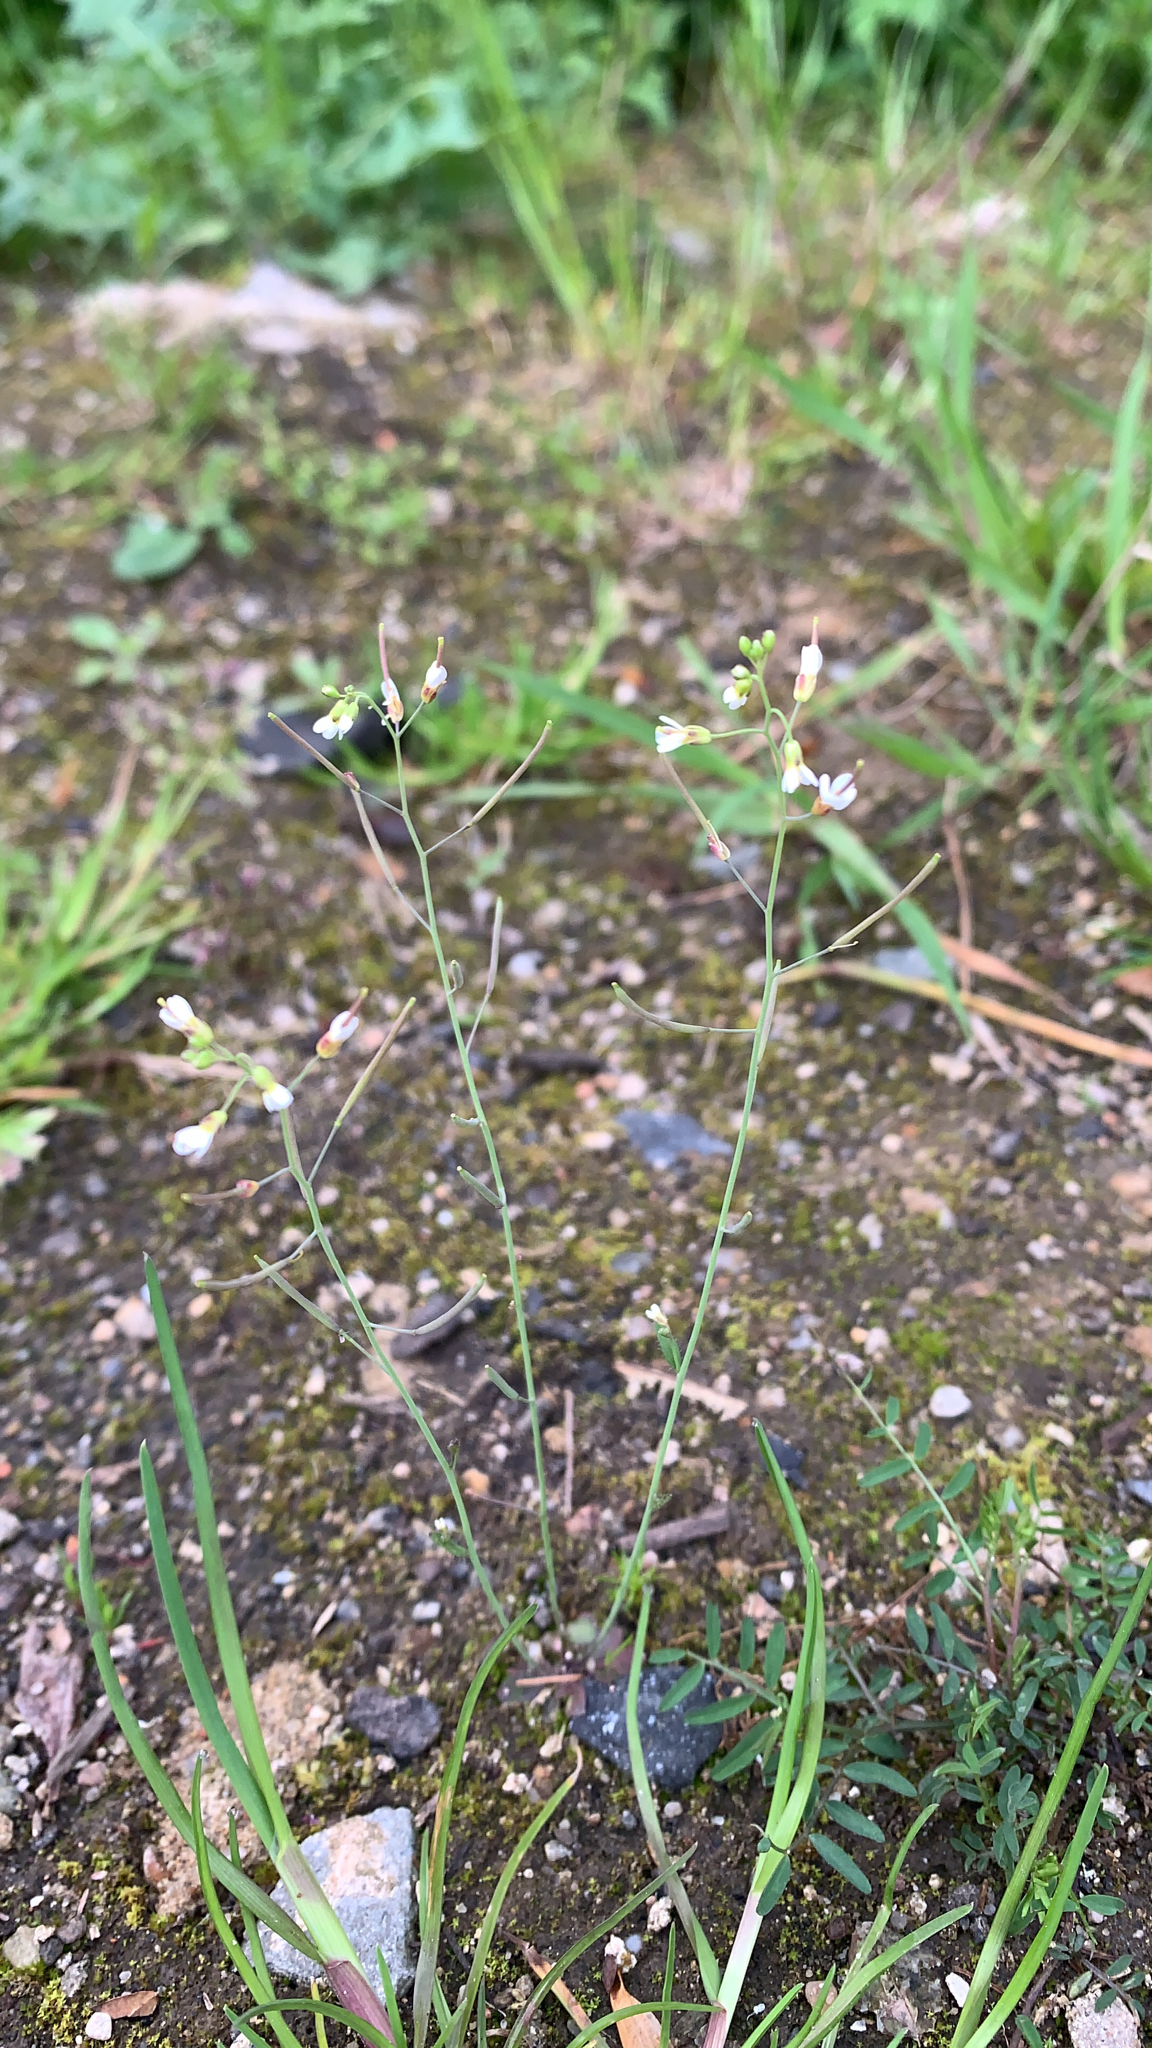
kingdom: Plantae
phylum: Tracheophyta
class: Magnoliopsida
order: Brassicales
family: Brassicaceae
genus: Arabidopsis
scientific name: Arabidopsis thaliana
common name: Thale cress
